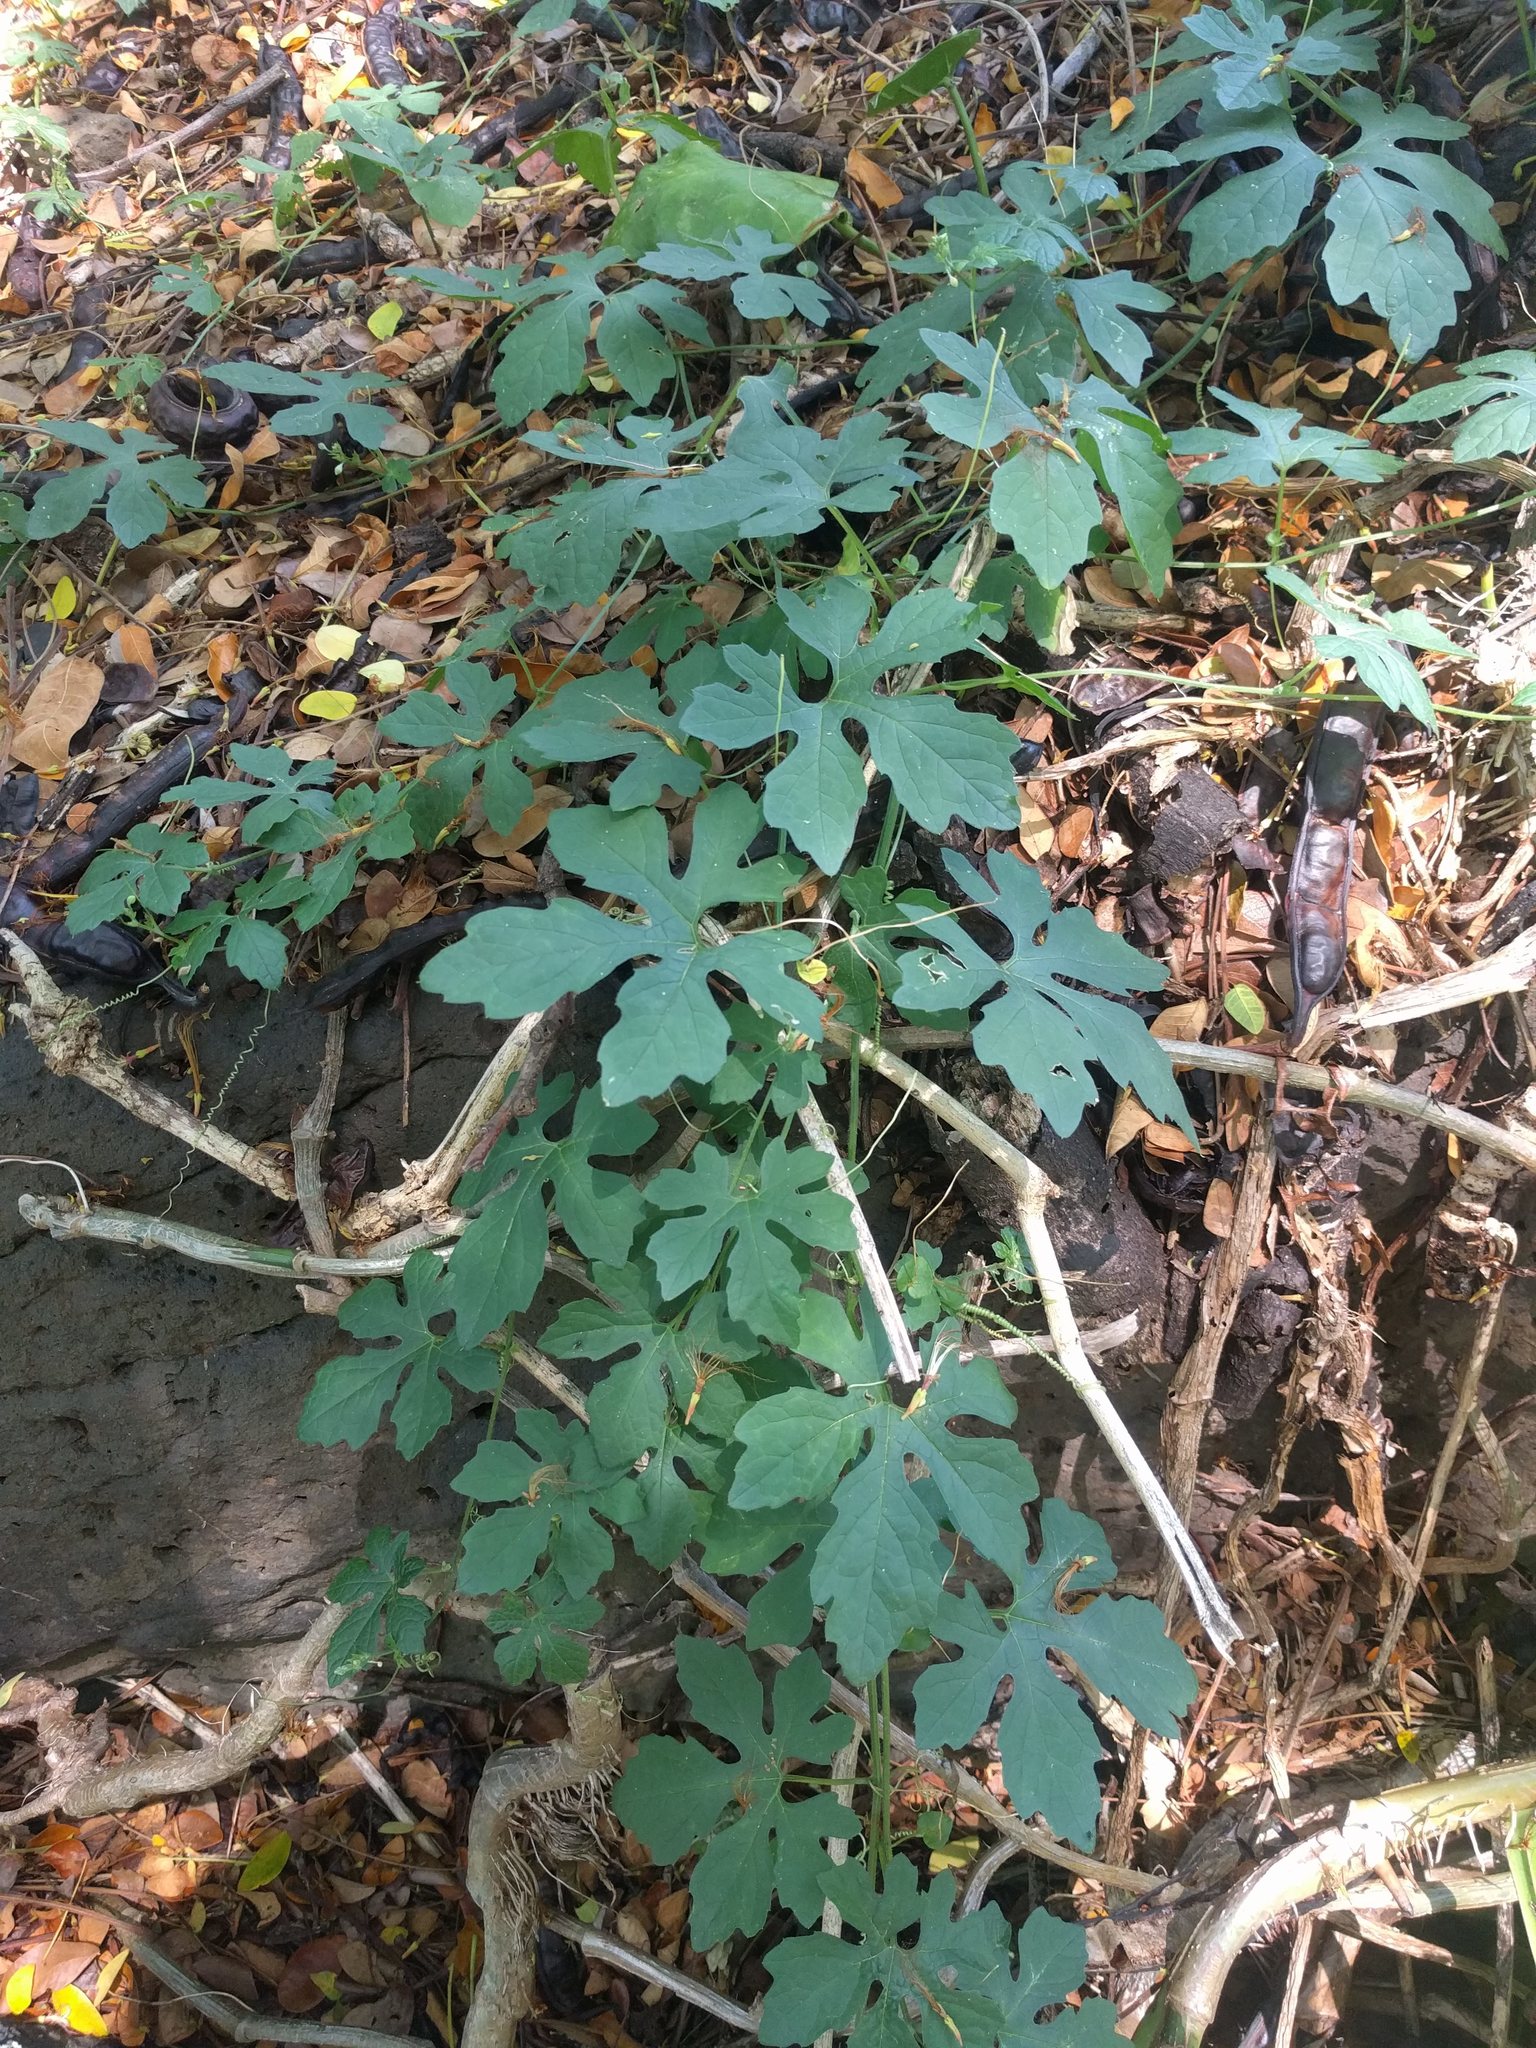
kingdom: Plantae
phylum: Tracheophyta
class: Magnoliopsida
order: Cucurbitales
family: Cucurbitaceae
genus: Momordica
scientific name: Momordica charantia
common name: Balsampear
